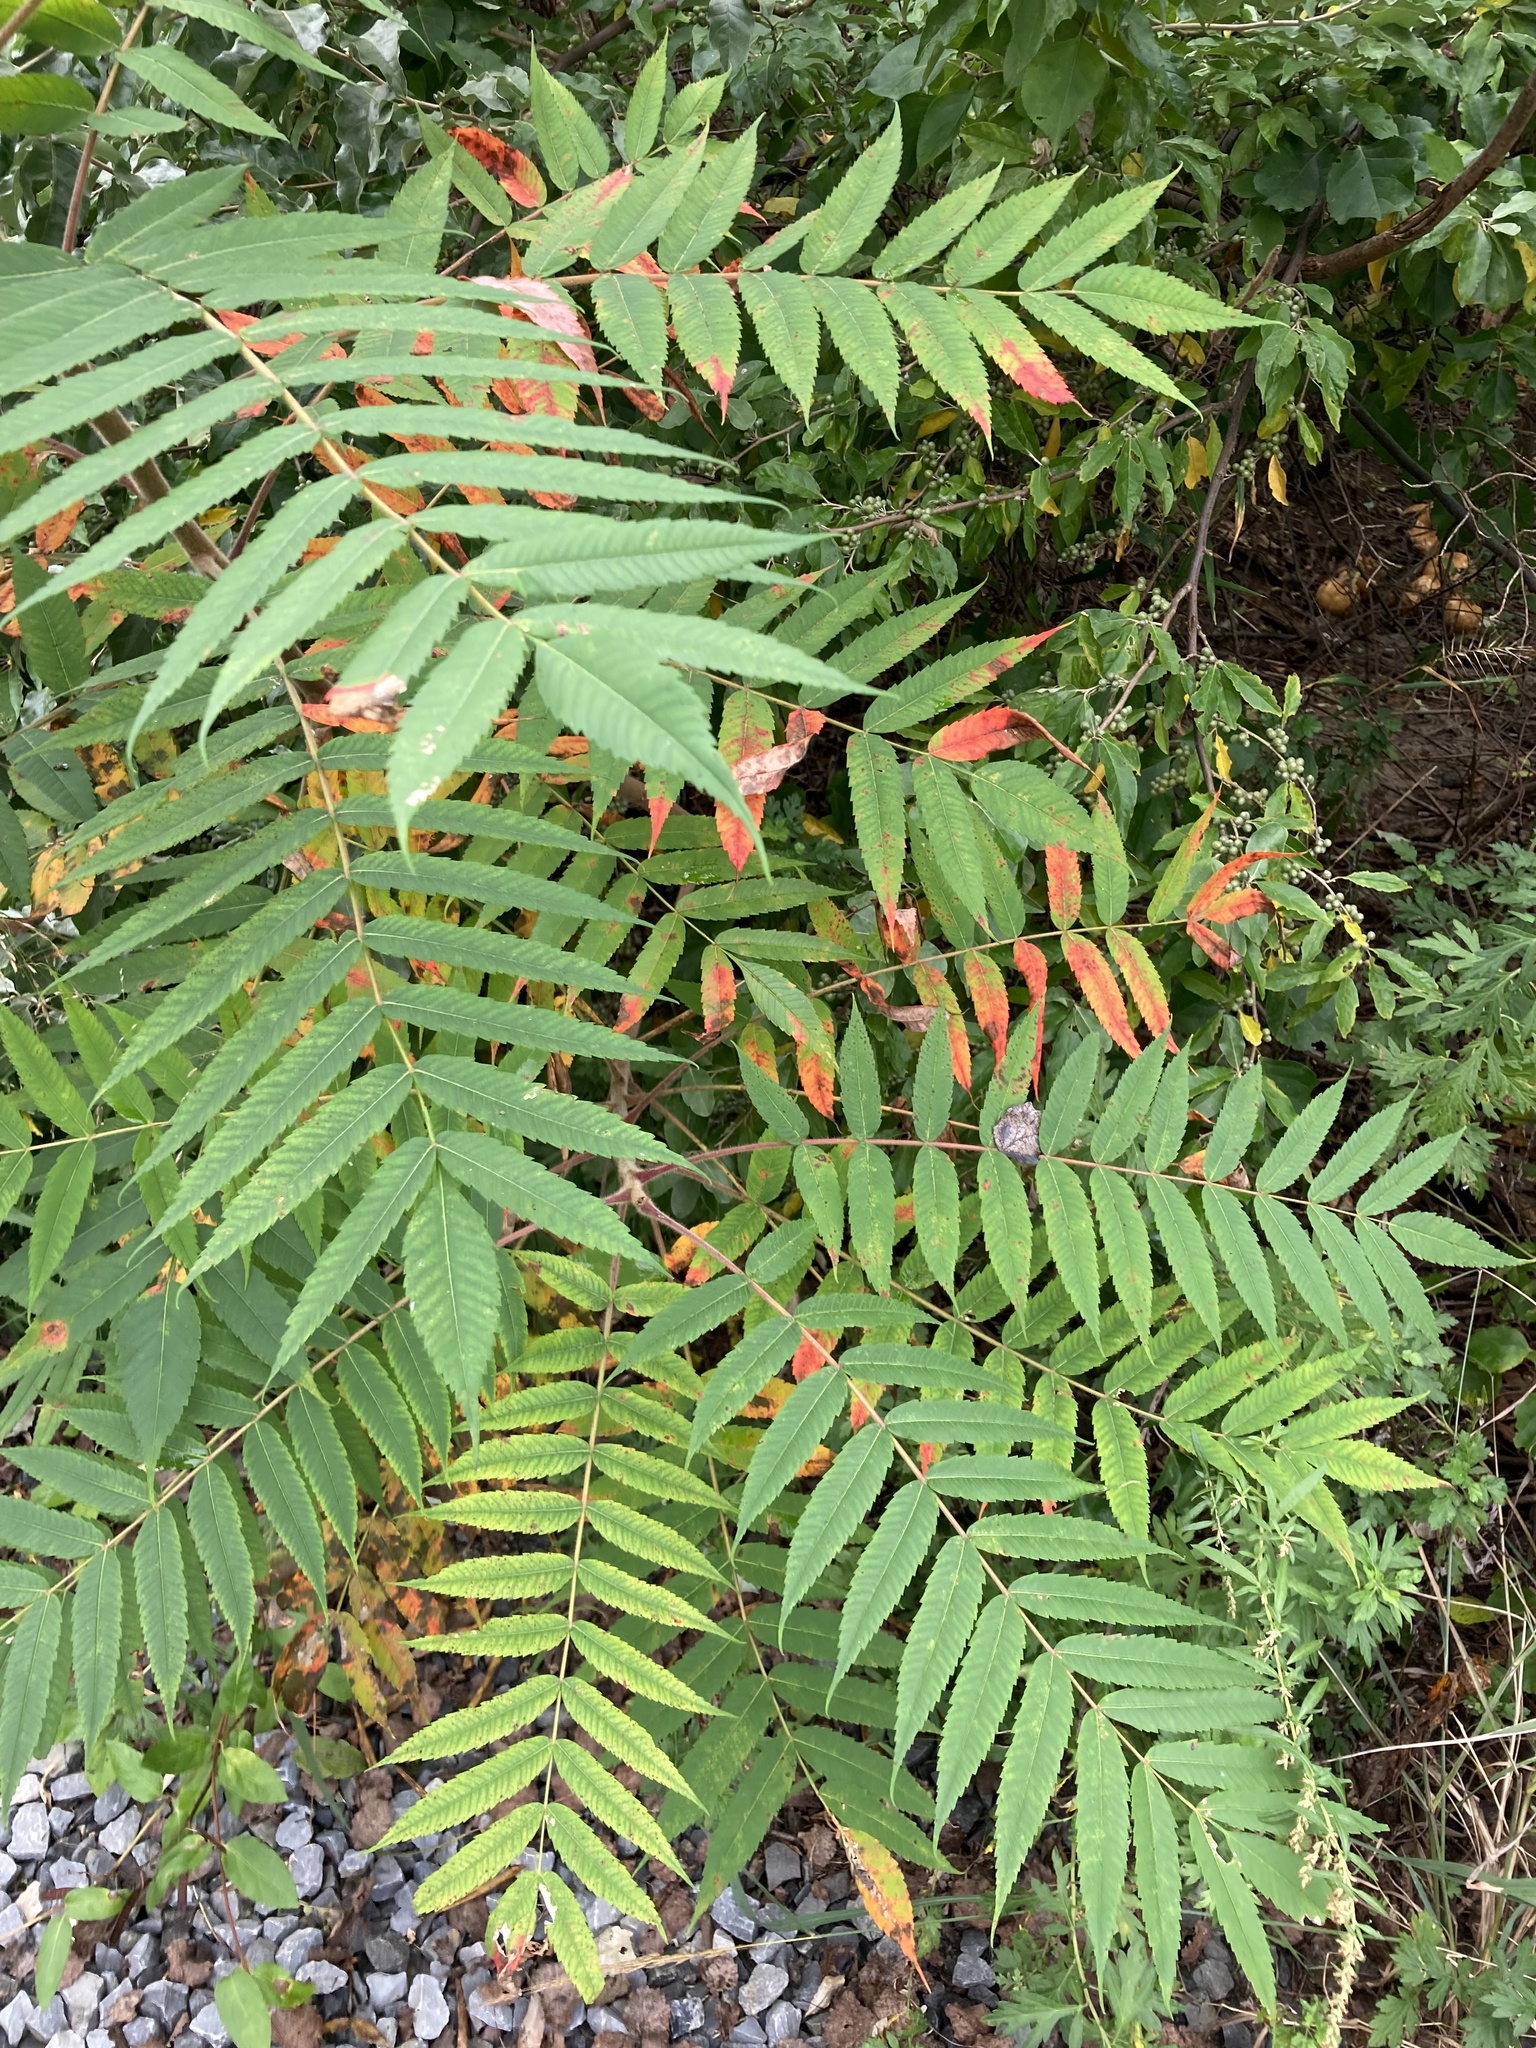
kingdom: Plantae
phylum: Tracheophyta
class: Magnoliopsida
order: Sapindales
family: Anacardiaceae
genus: Rhus
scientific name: Rhus typhina
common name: Staghorn sumac
